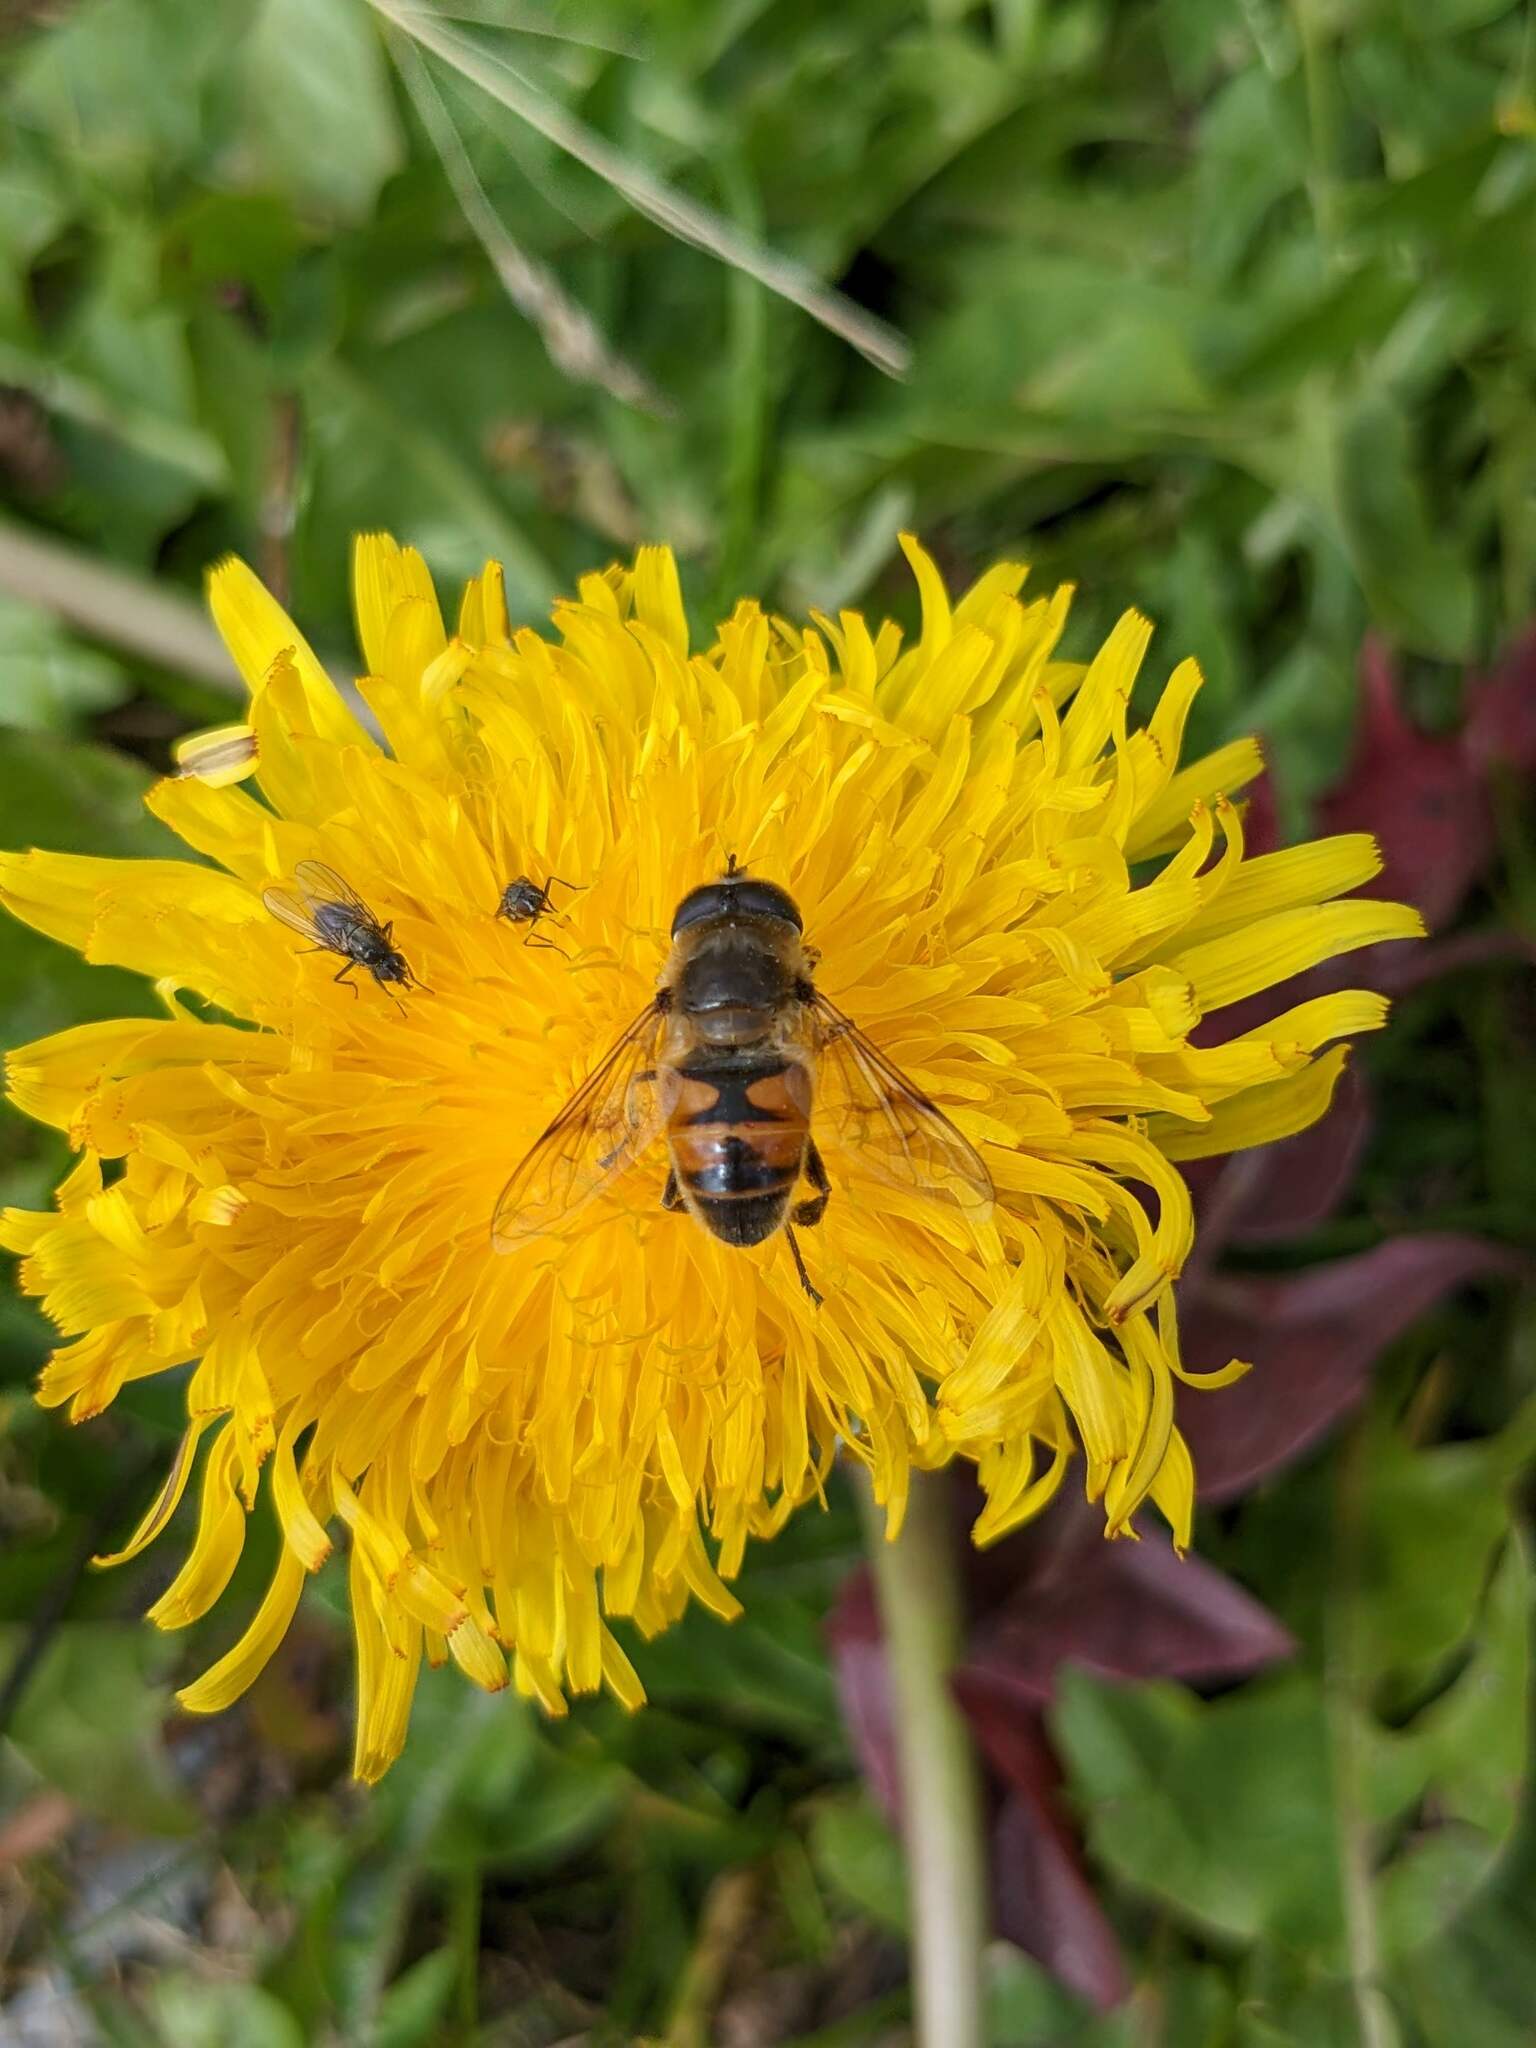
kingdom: Animalia
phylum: Arthropoda
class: Insecta
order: Diptera
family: Syrphidae
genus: Eristalis
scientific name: Eristalis tenax
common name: Drone fly
